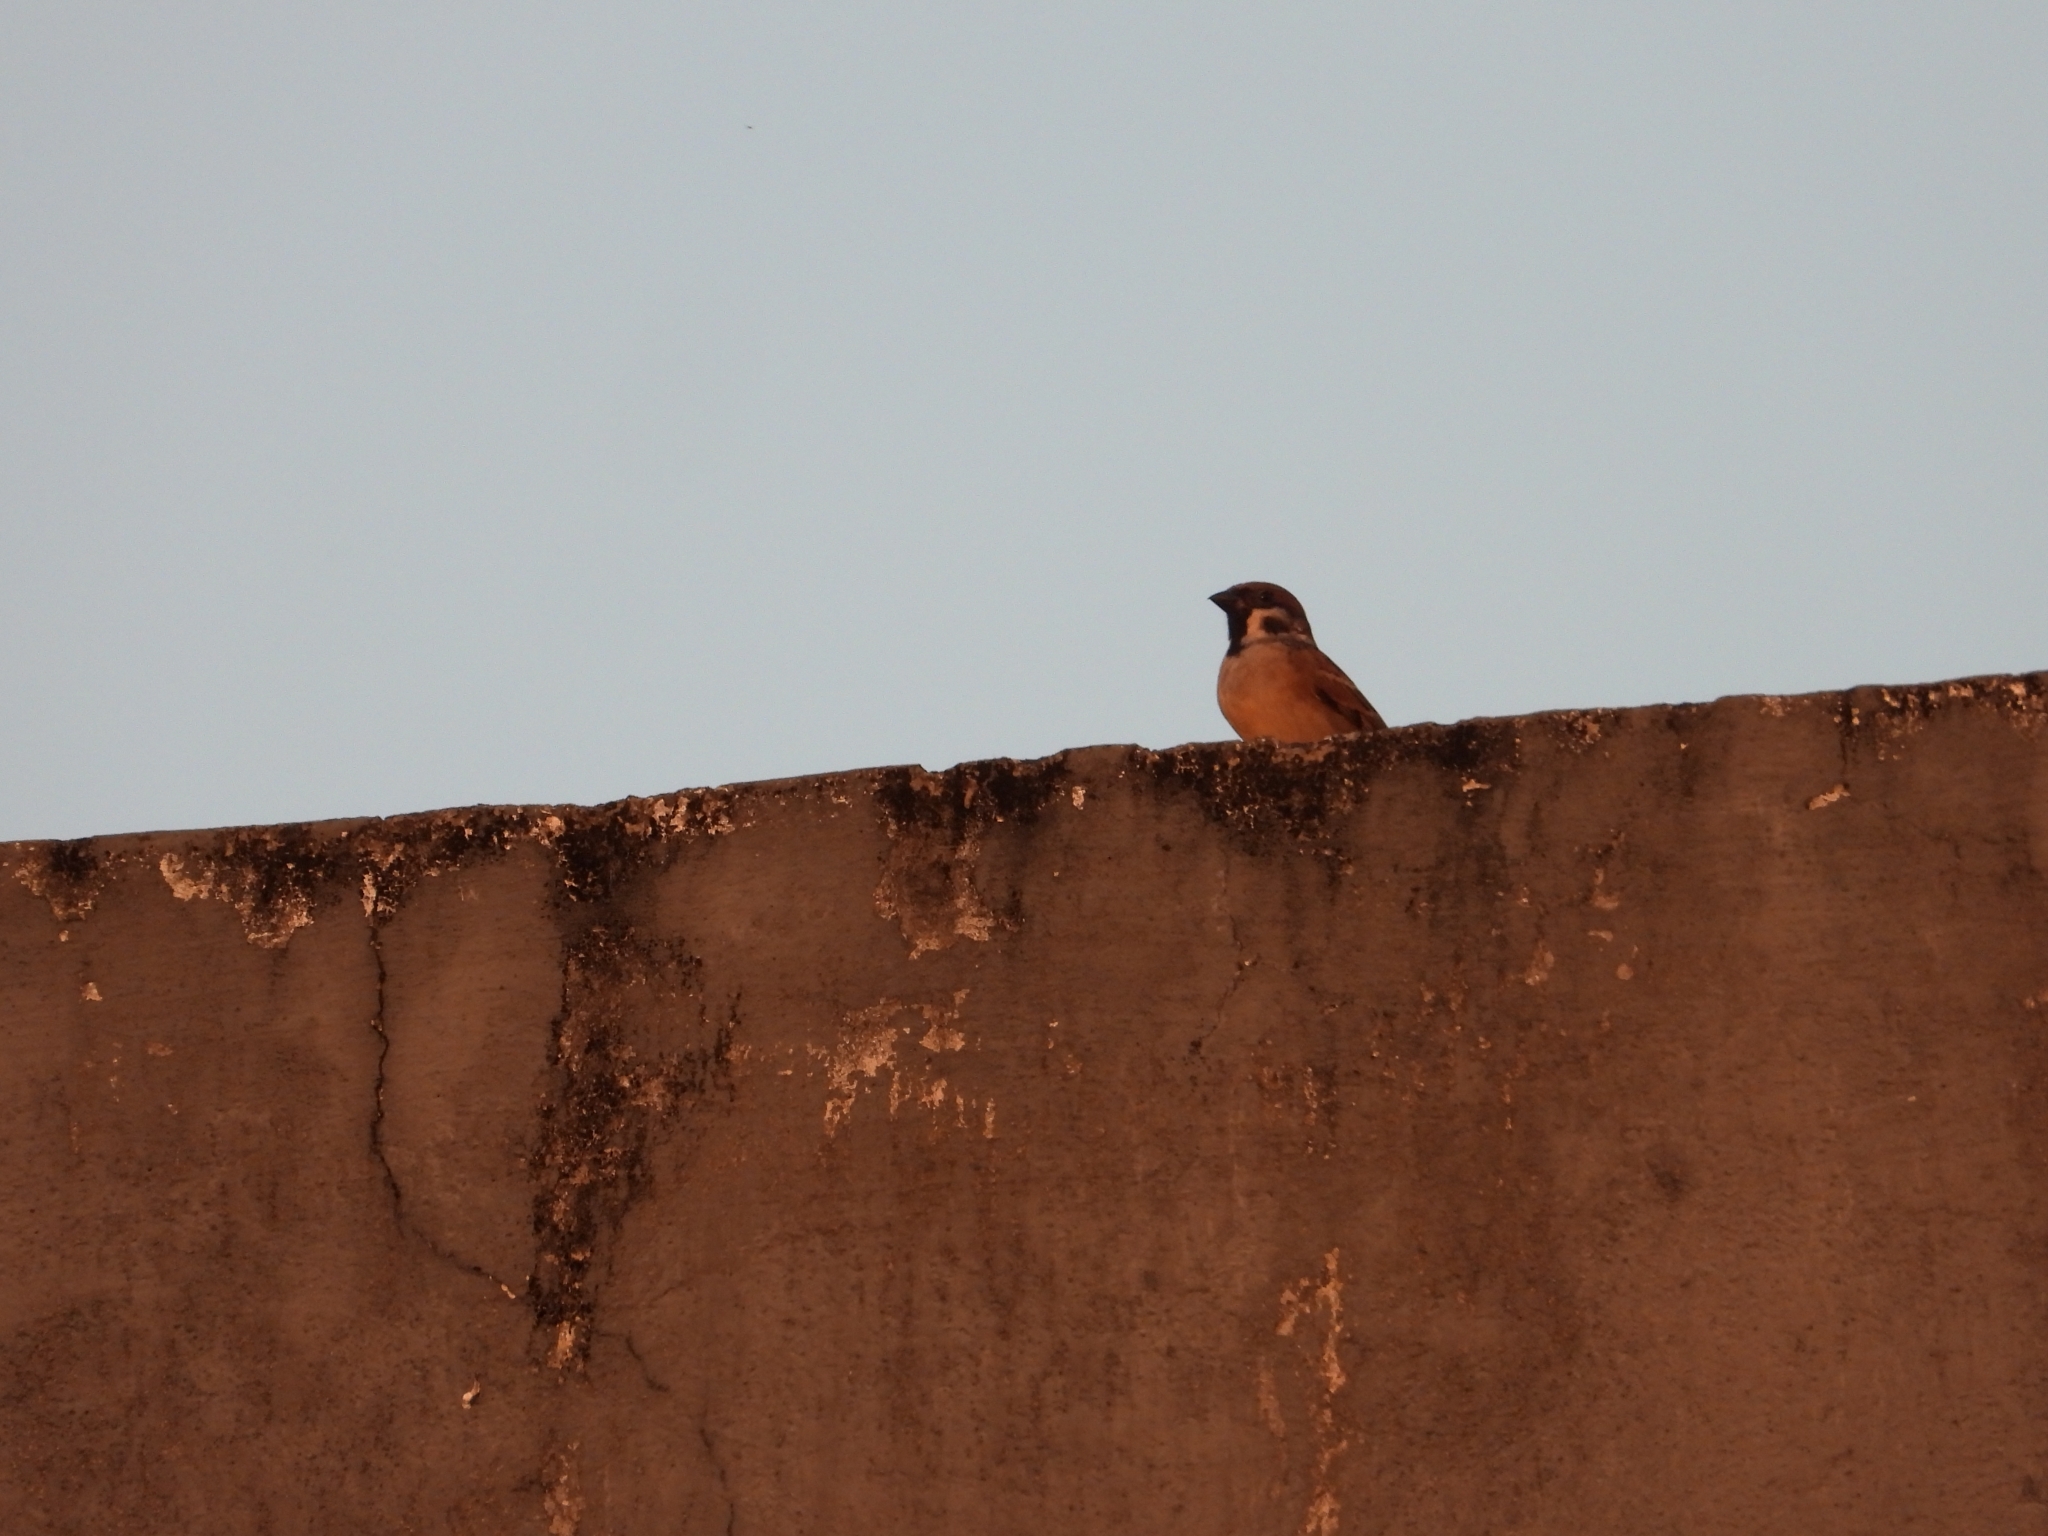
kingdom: Animalia
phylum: Chordata
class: Aves
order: Passeriformes
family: Passeridae
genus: Passer
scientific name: Passer montanus
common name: Eurasian tree sparrow
